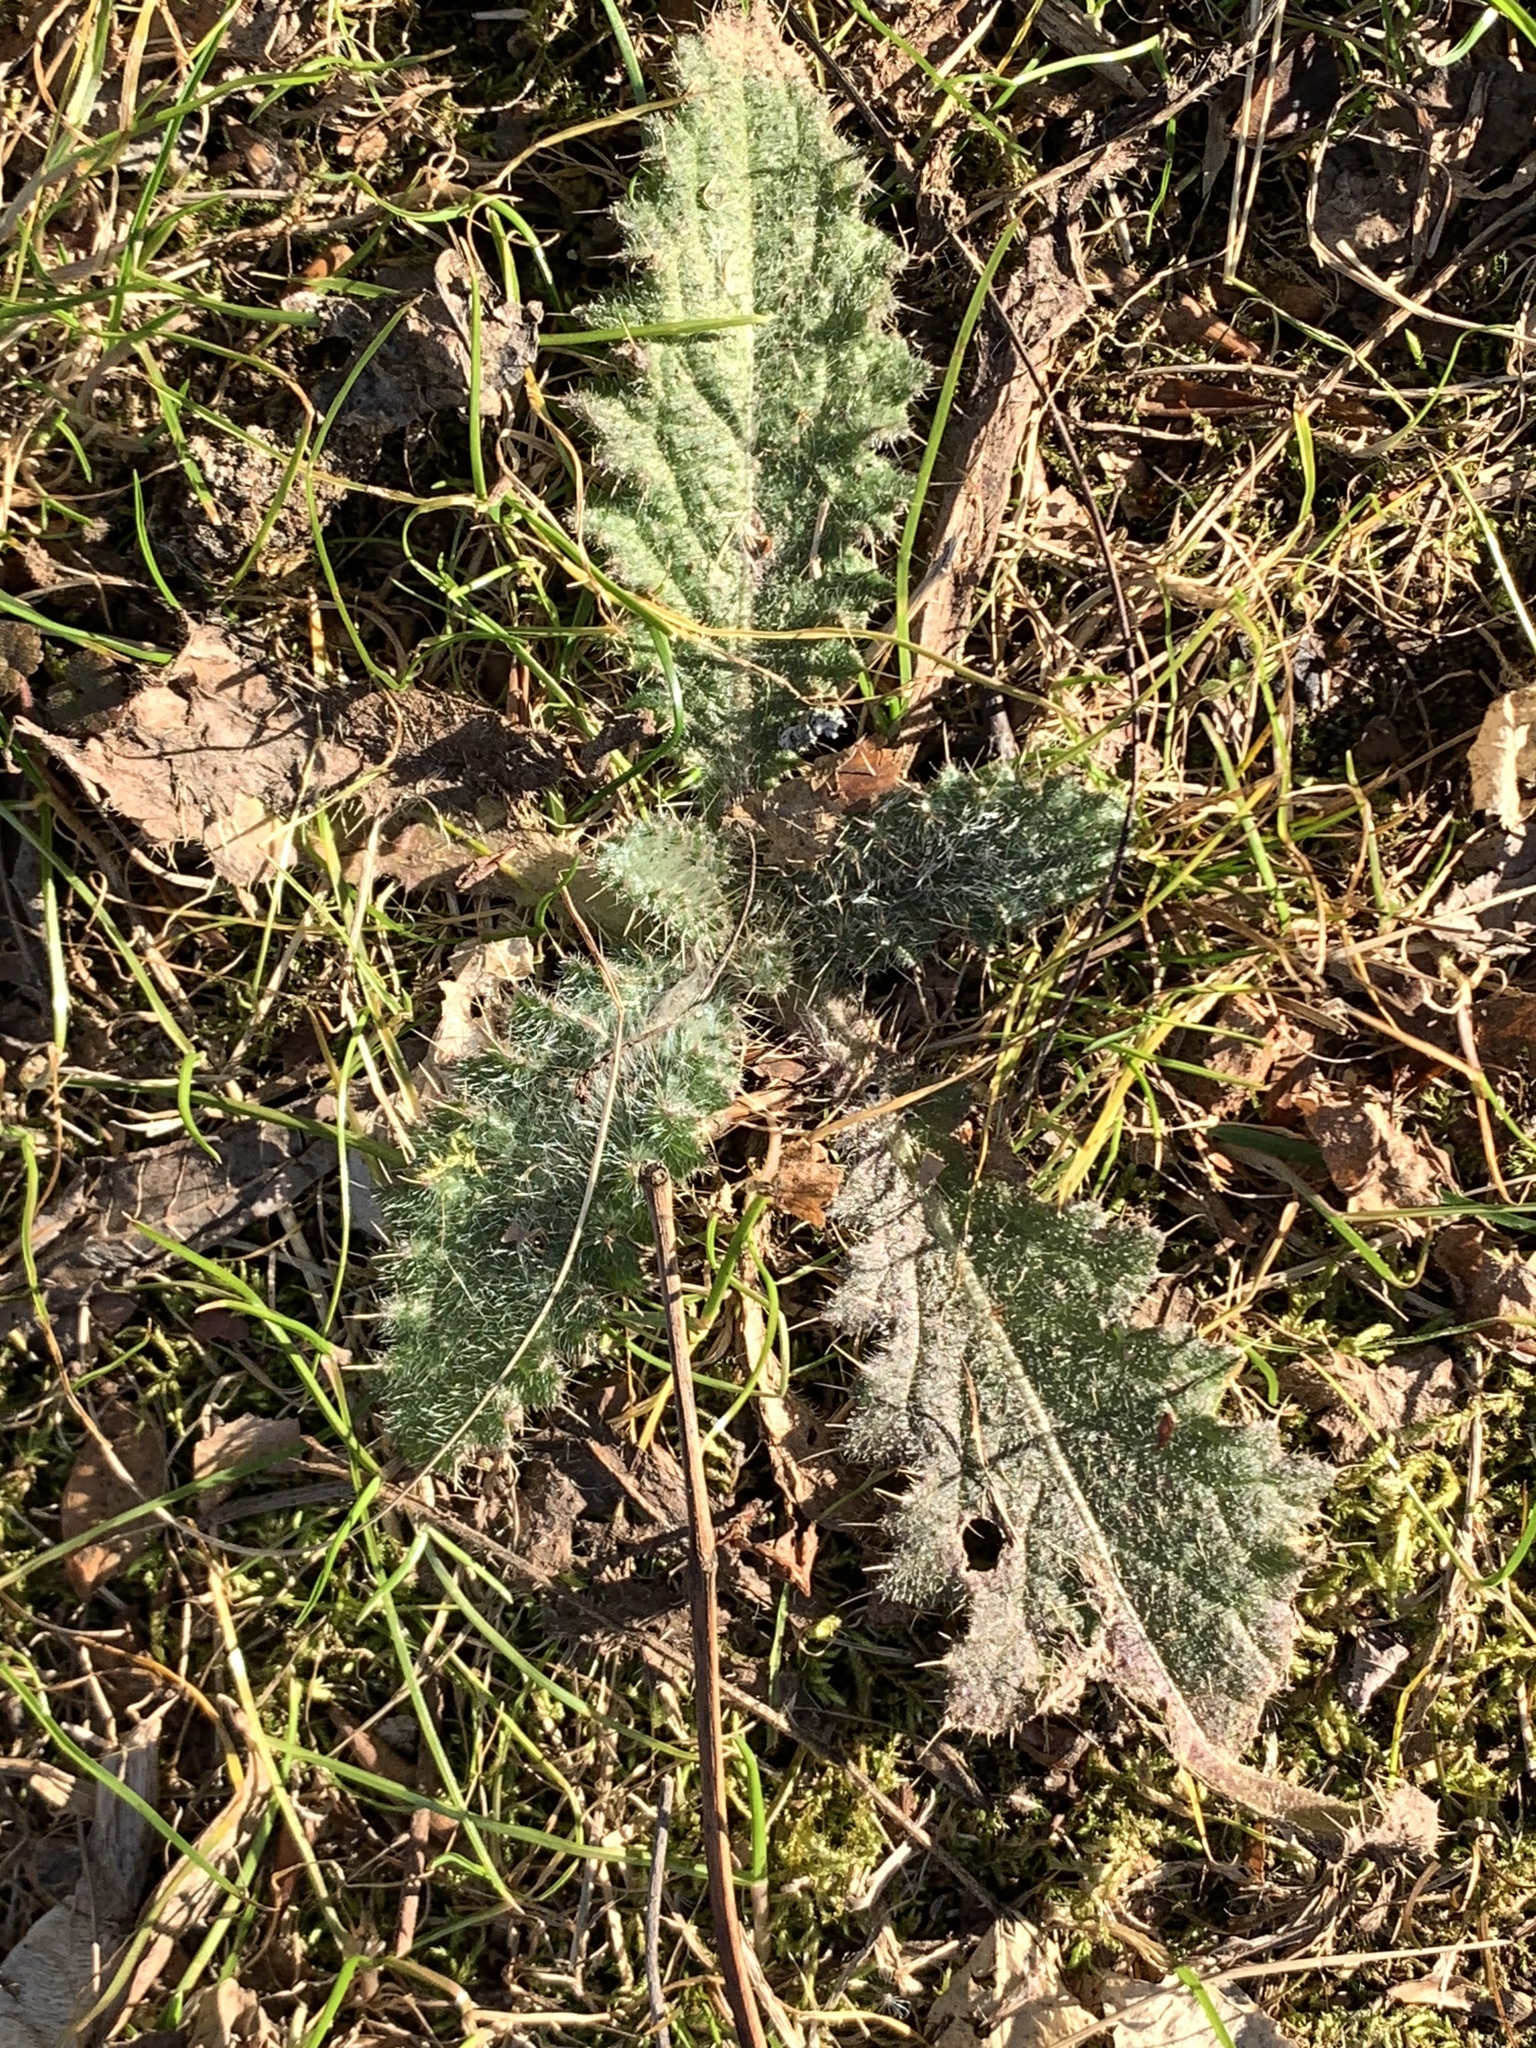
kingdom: Plantae
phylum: Tracheophyta
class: Magnoliopsida
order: Asterales
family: Asteraceae
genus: Cirsium
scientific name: Cirsium vulgare
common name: Bull thistle
